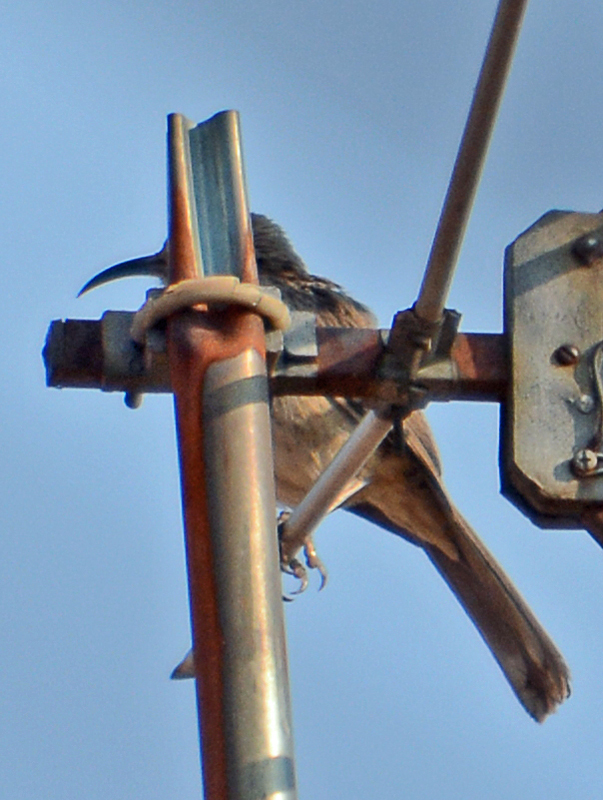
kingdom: Animalia
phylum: Chordata
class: Aves
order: Passeriformes
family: Mimidae
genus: Toxostoma
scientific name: Toxostoma curvirostre
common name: Curve-billed thrasher
